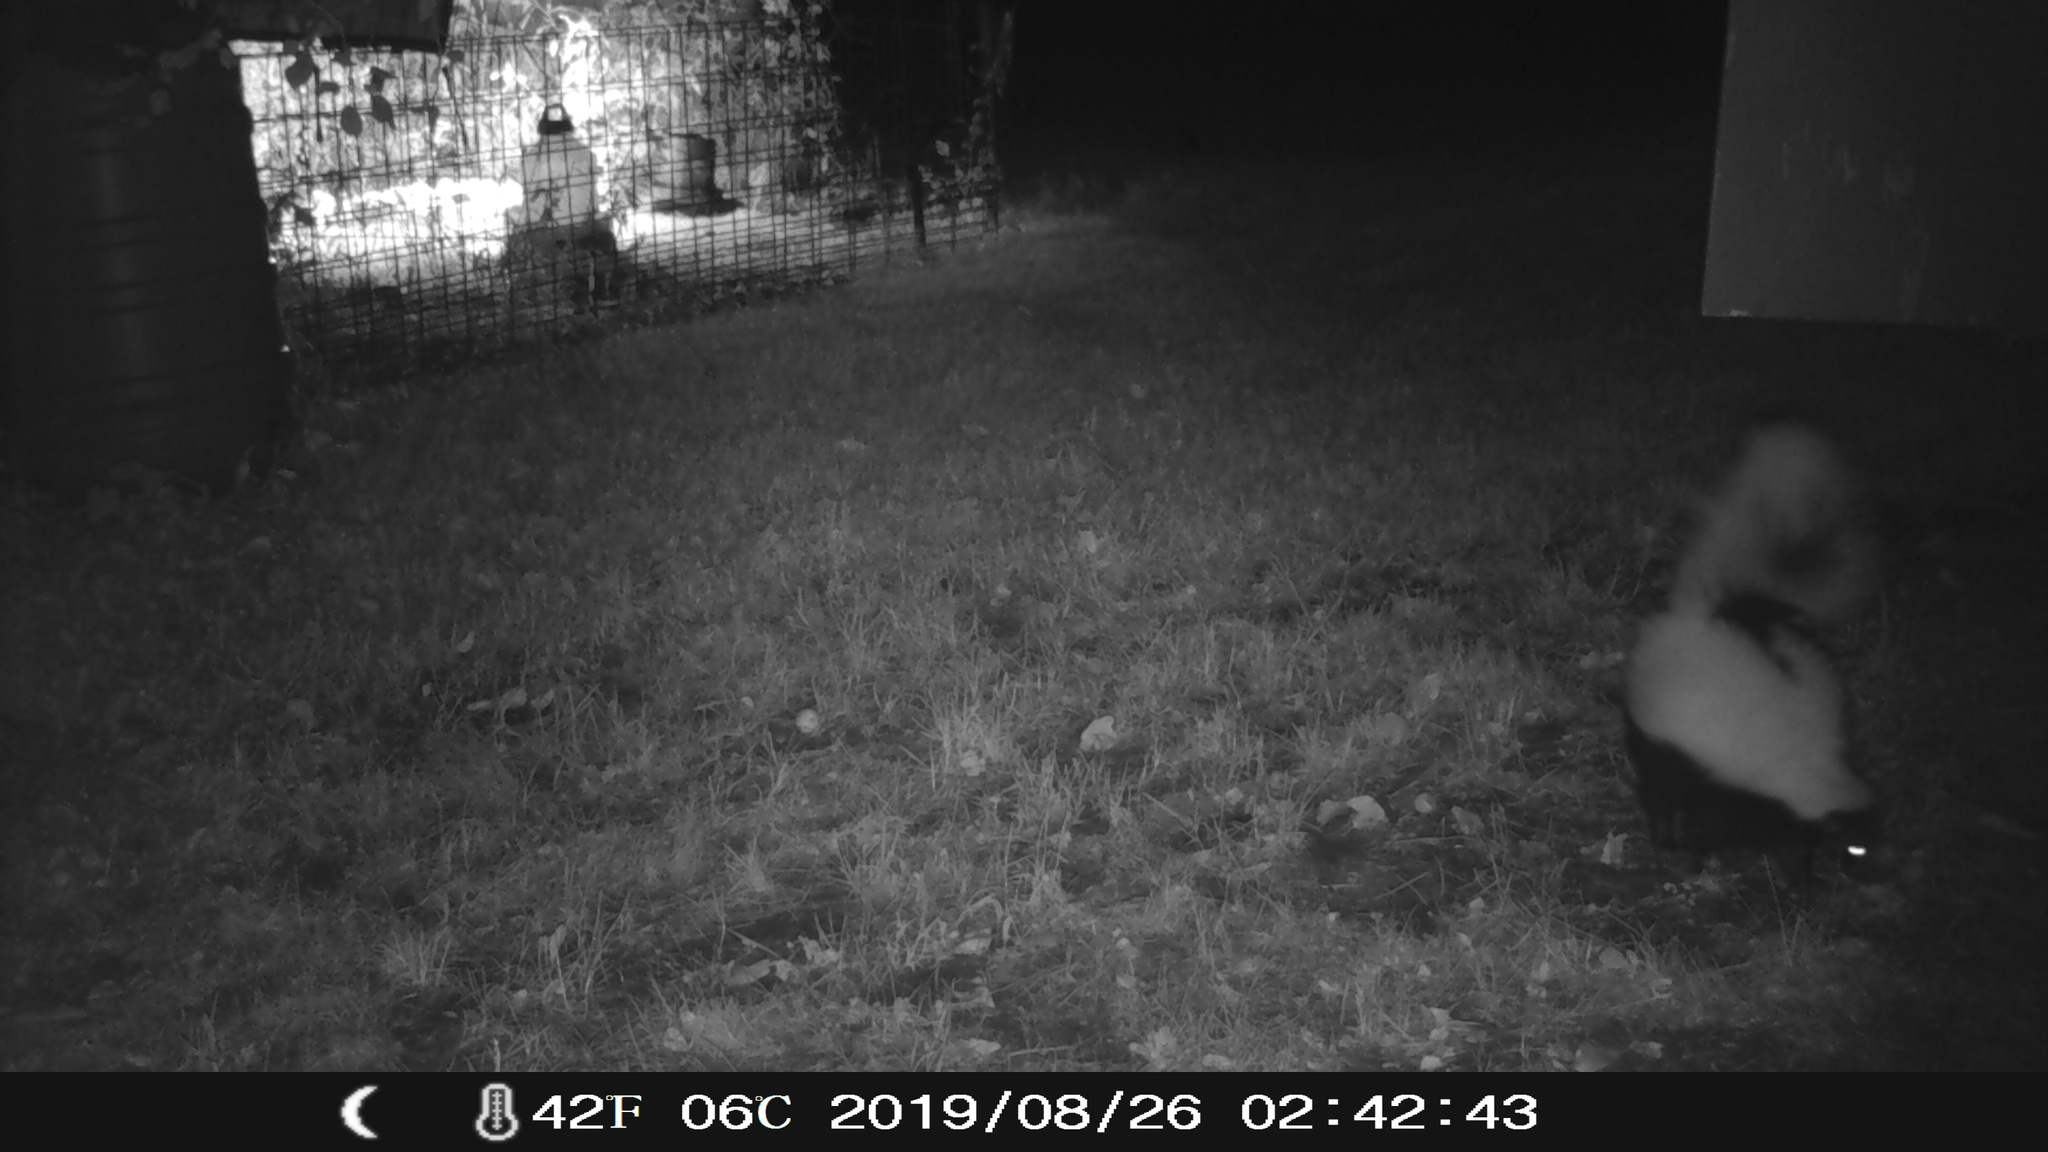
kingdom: Animalia
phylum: Chordata
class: Mammalia
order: Carnivora
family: Mephitidae
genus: Mephitis
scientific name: Mephitis mephitis
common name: Striped skunk
